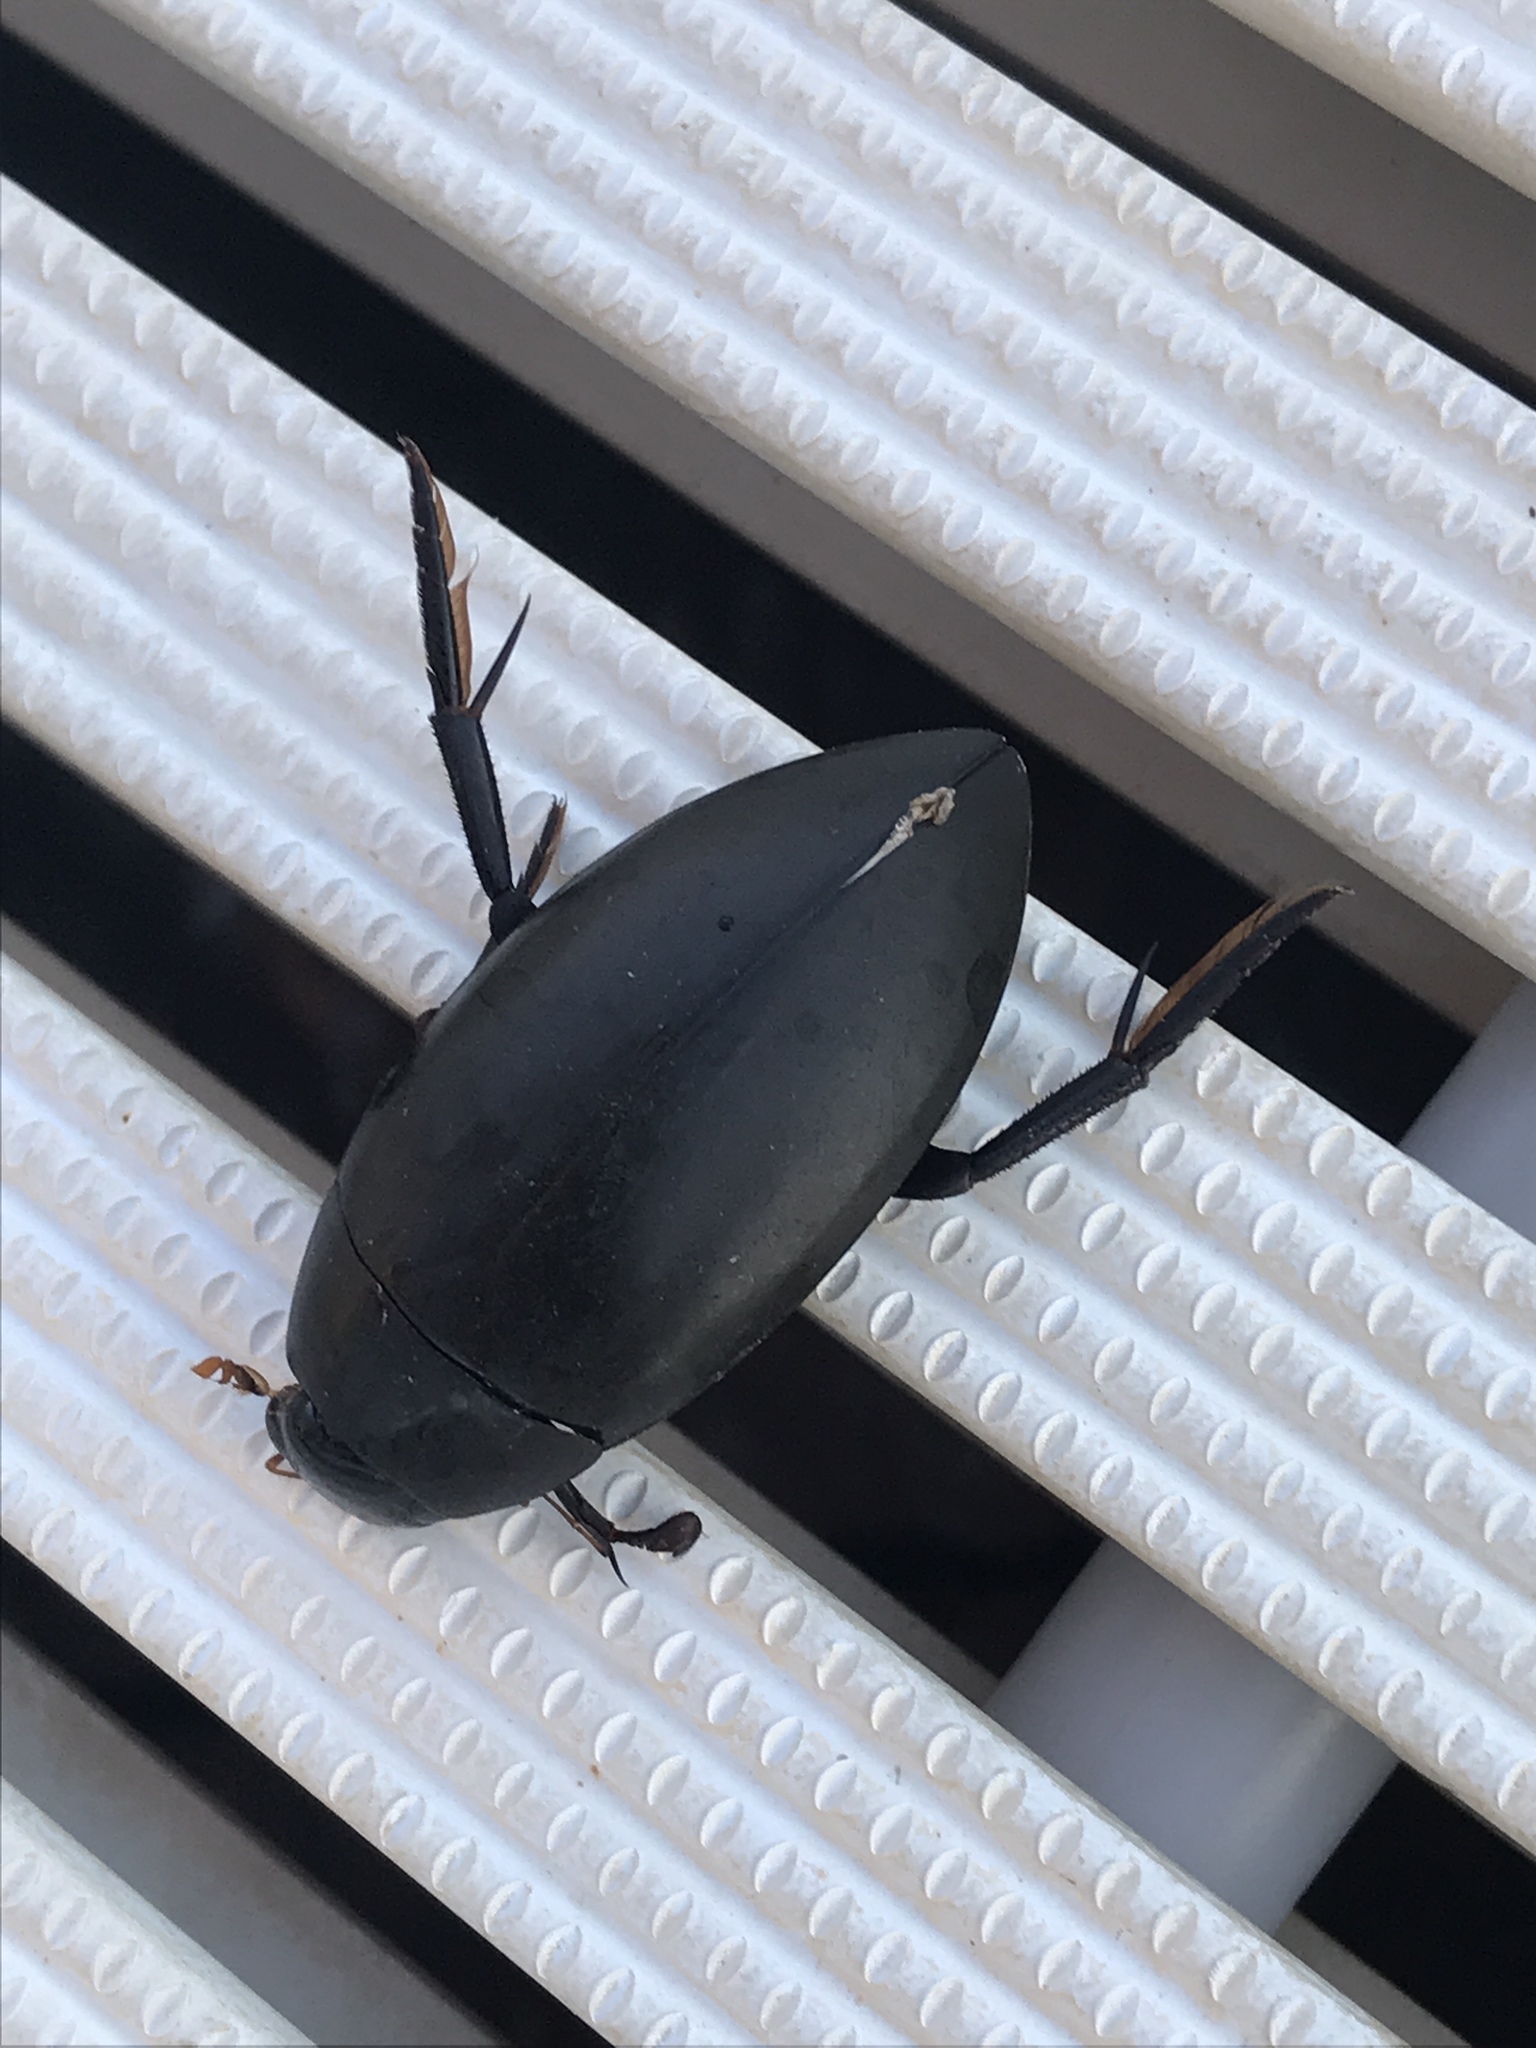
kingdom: Animalia
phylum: Arthropoda
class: Insecta
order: Coleoptera
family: Hydrophilidae
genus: Hydrophilus
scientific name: Hydrophilus triangularis
